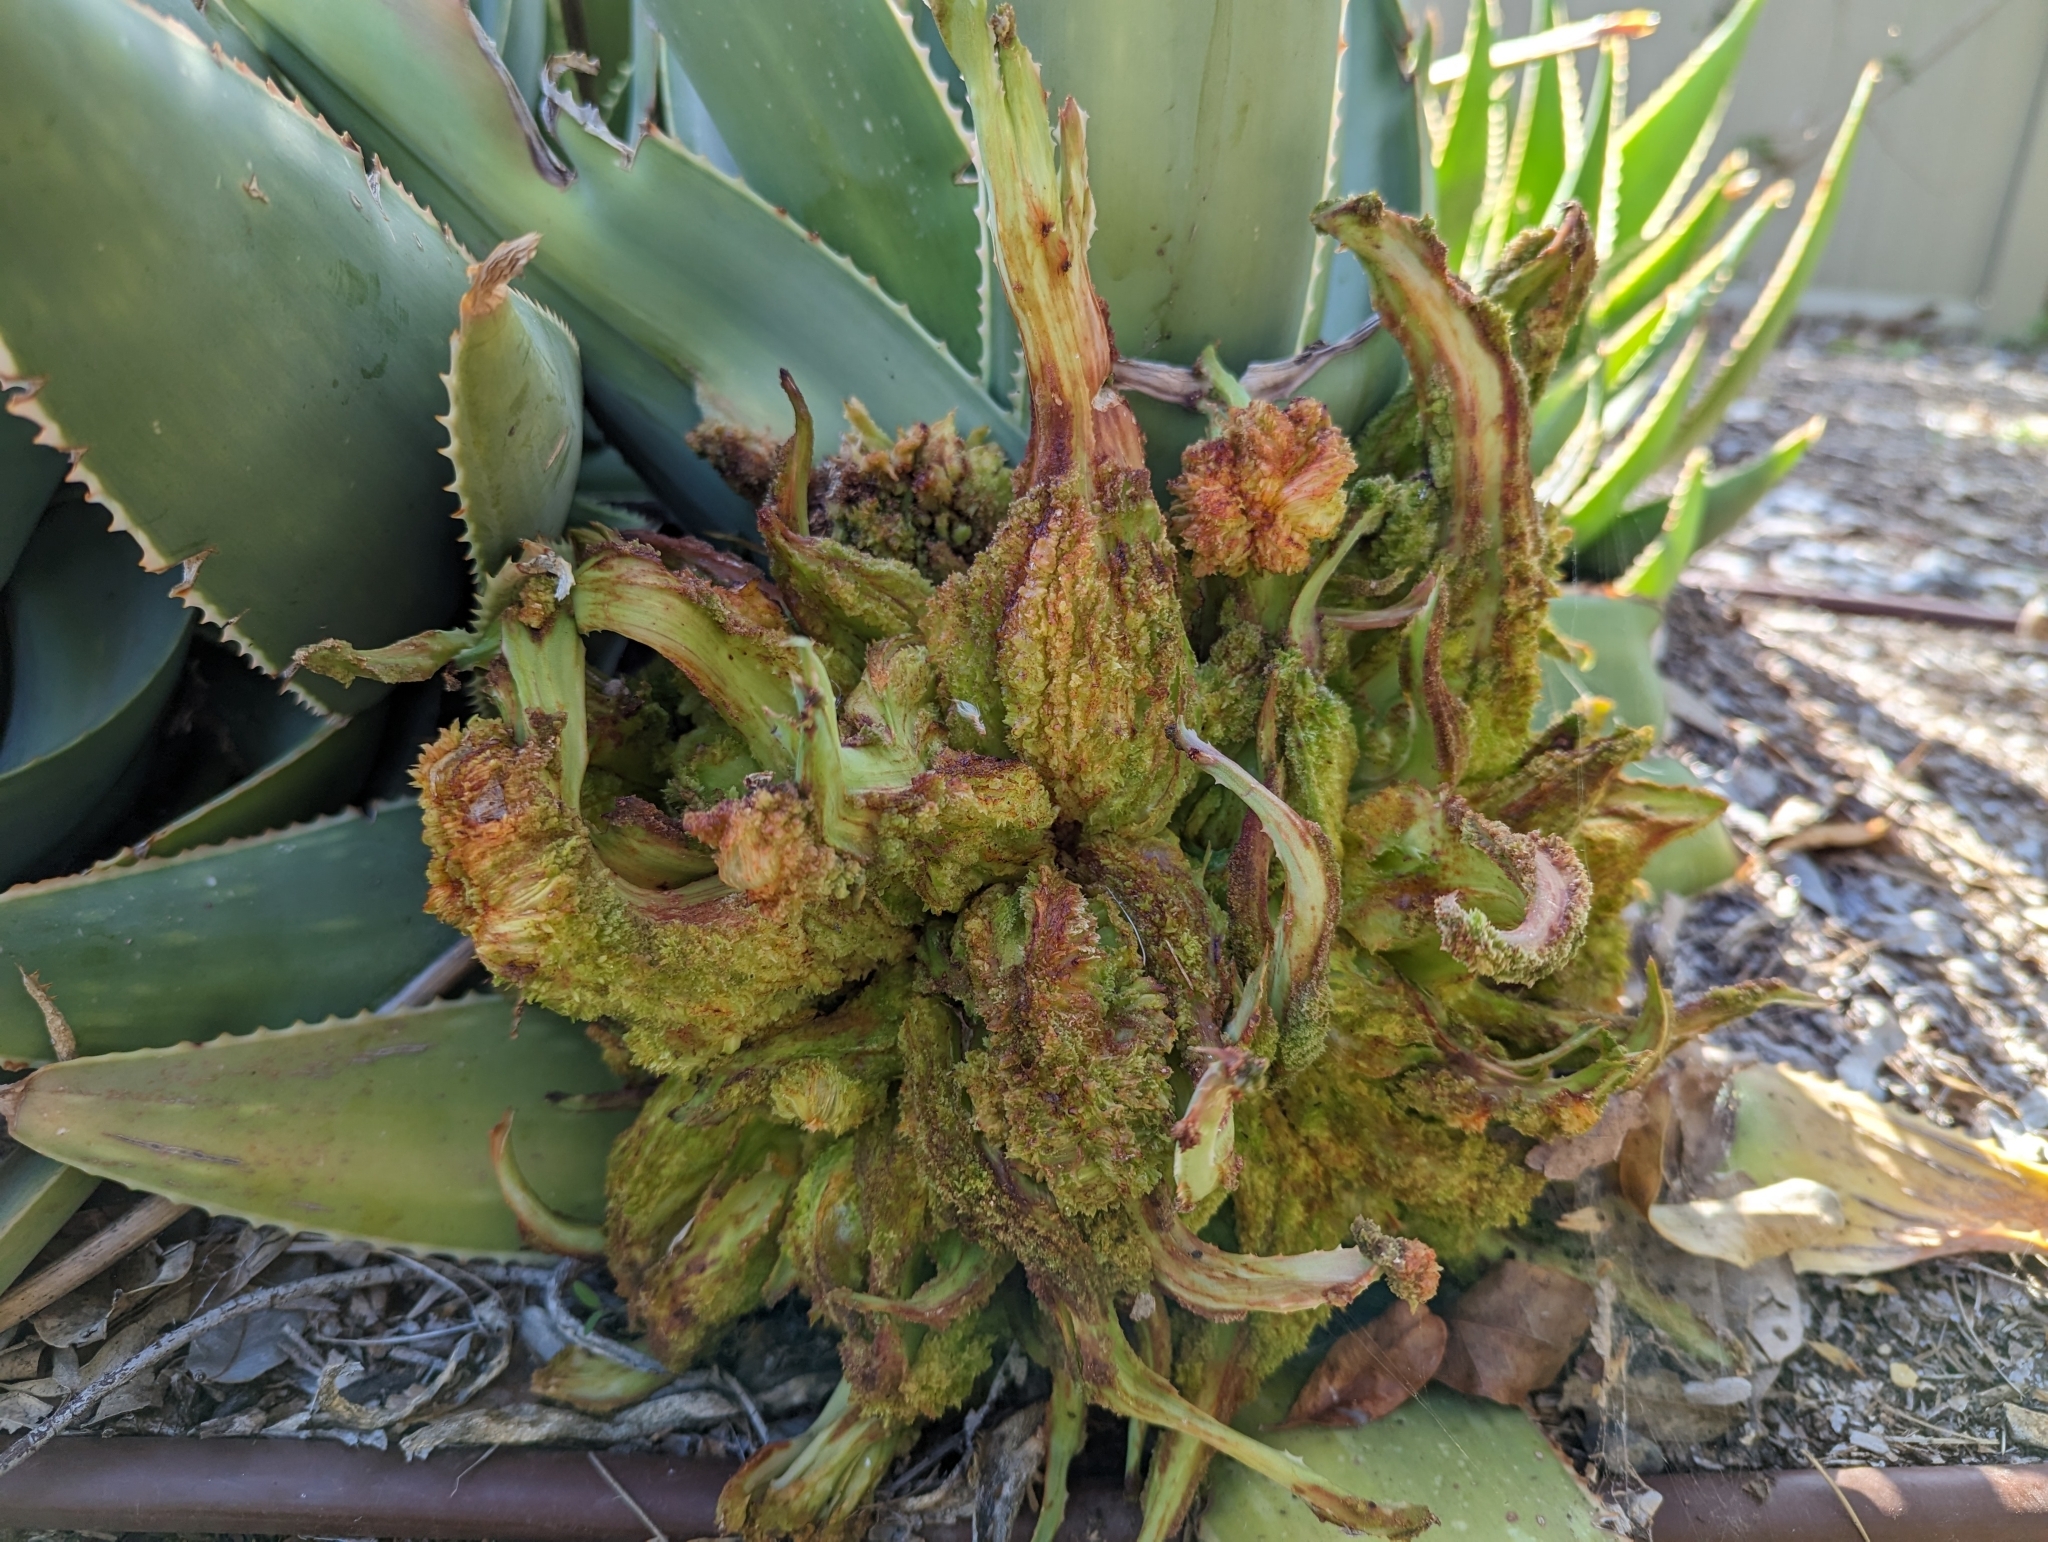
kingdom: Animalia
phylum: Arthropoda
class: Arachnida
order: Trombidiformes
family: Eriophyidae
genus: Aceria
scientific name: Aceria aloinis
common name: Mite
